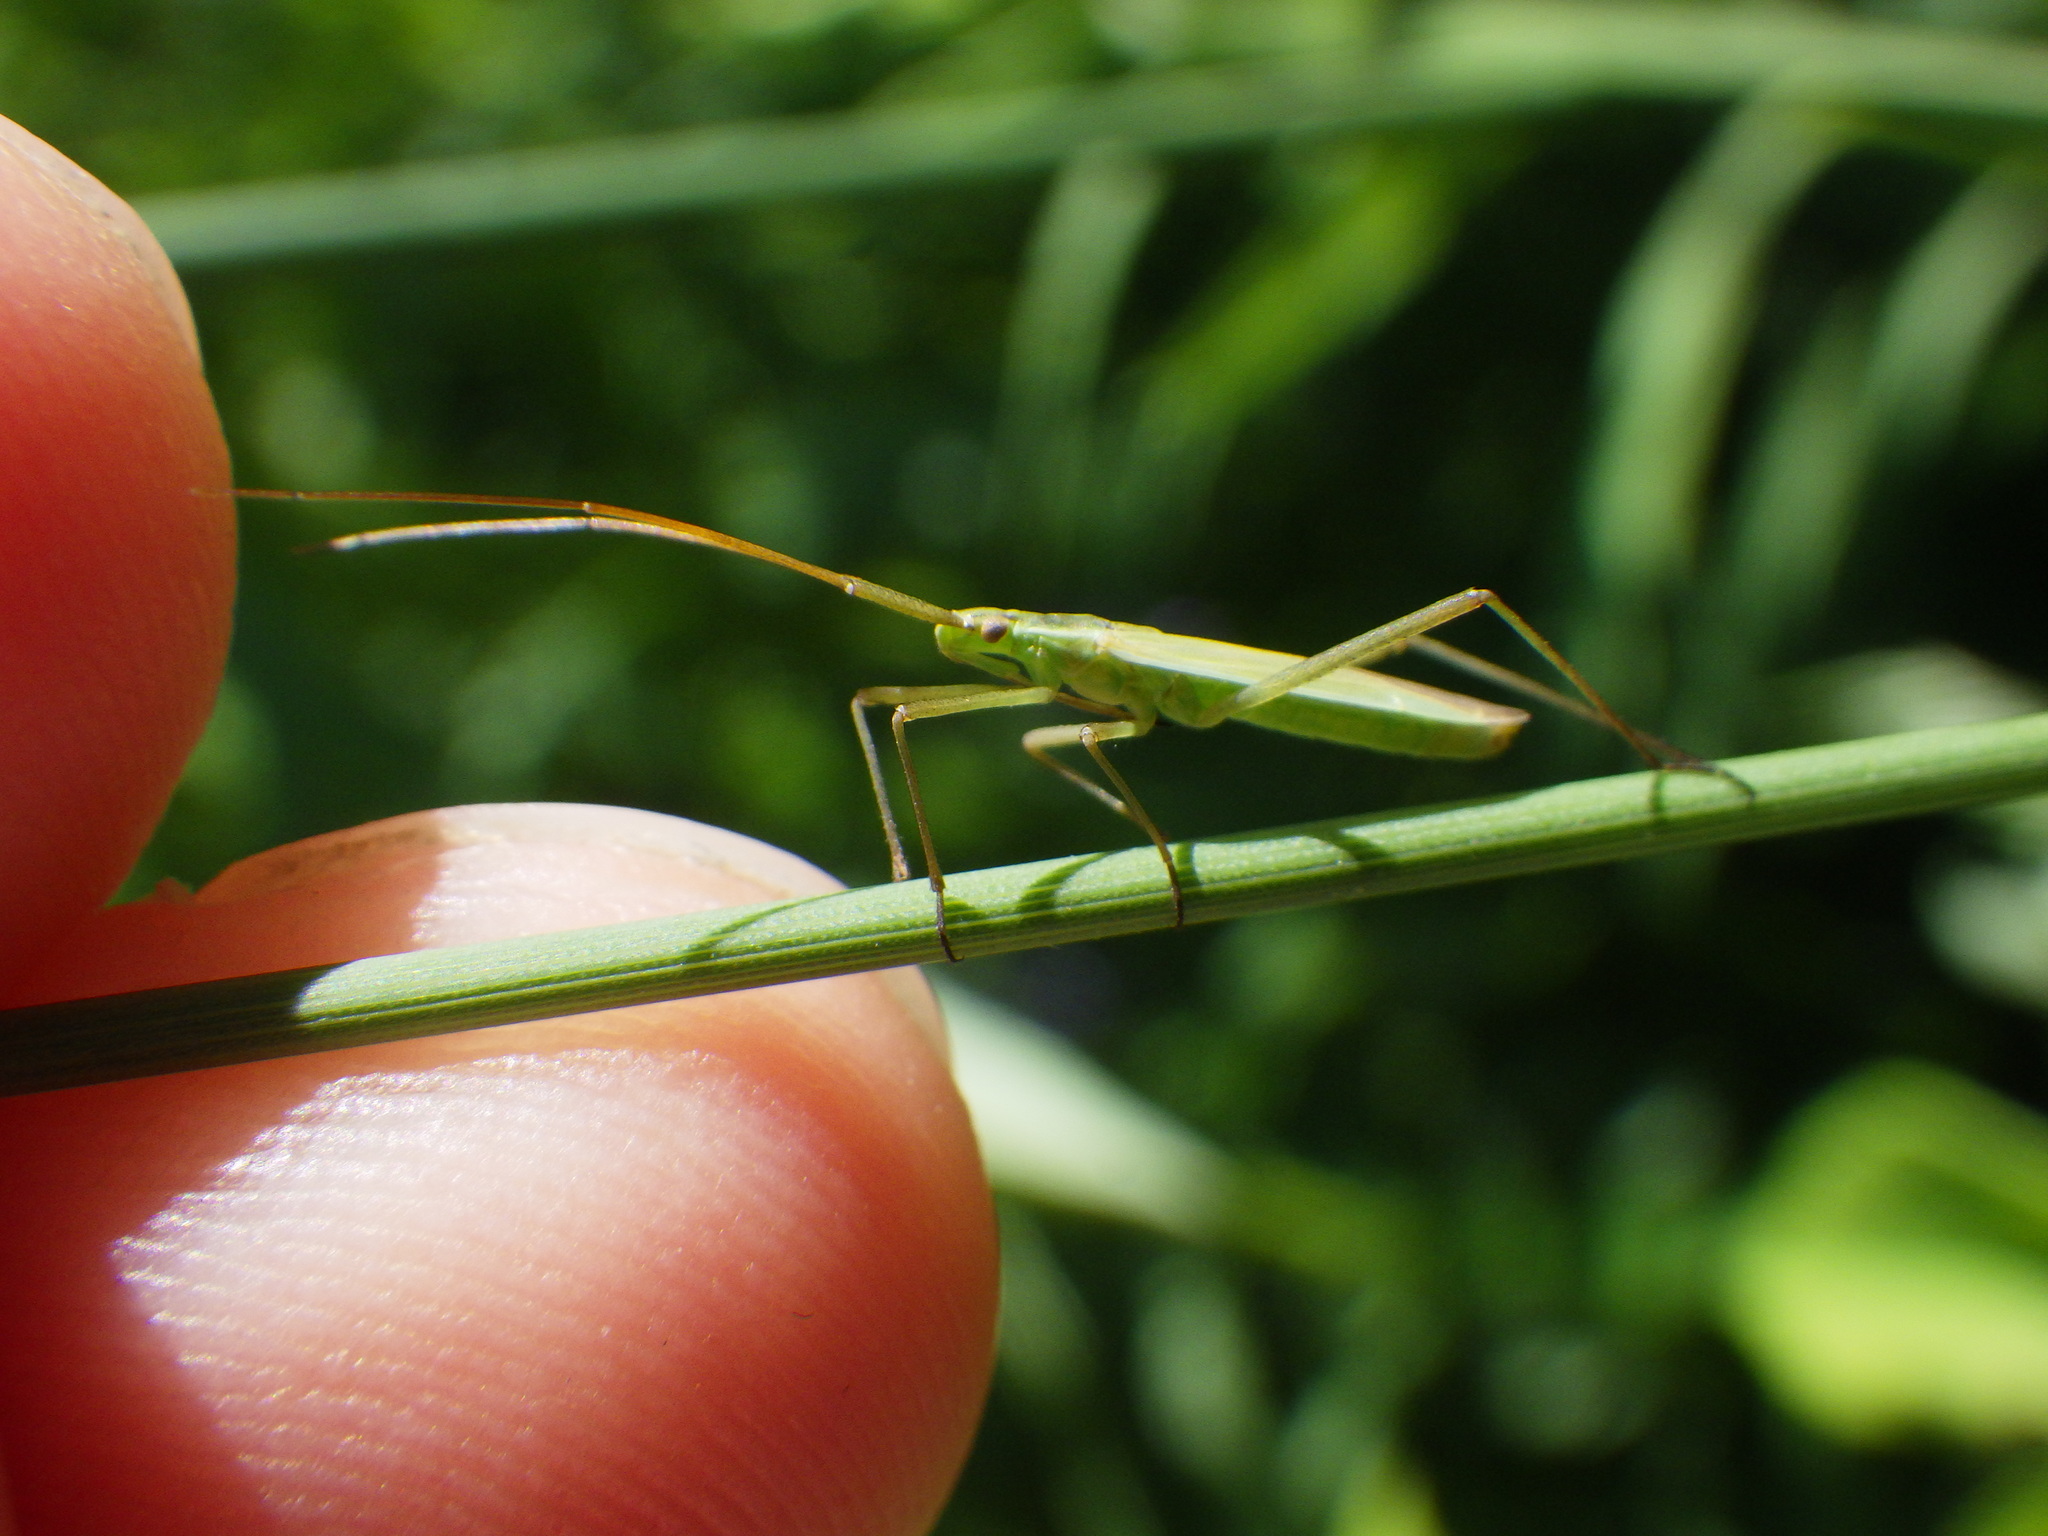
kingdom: Animalia
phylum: Arthropoda
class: Insecta
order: Hemiptera
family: Miridae
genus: Megaloceroea
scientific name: Megaloceroea recticornis
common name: Plant bug
